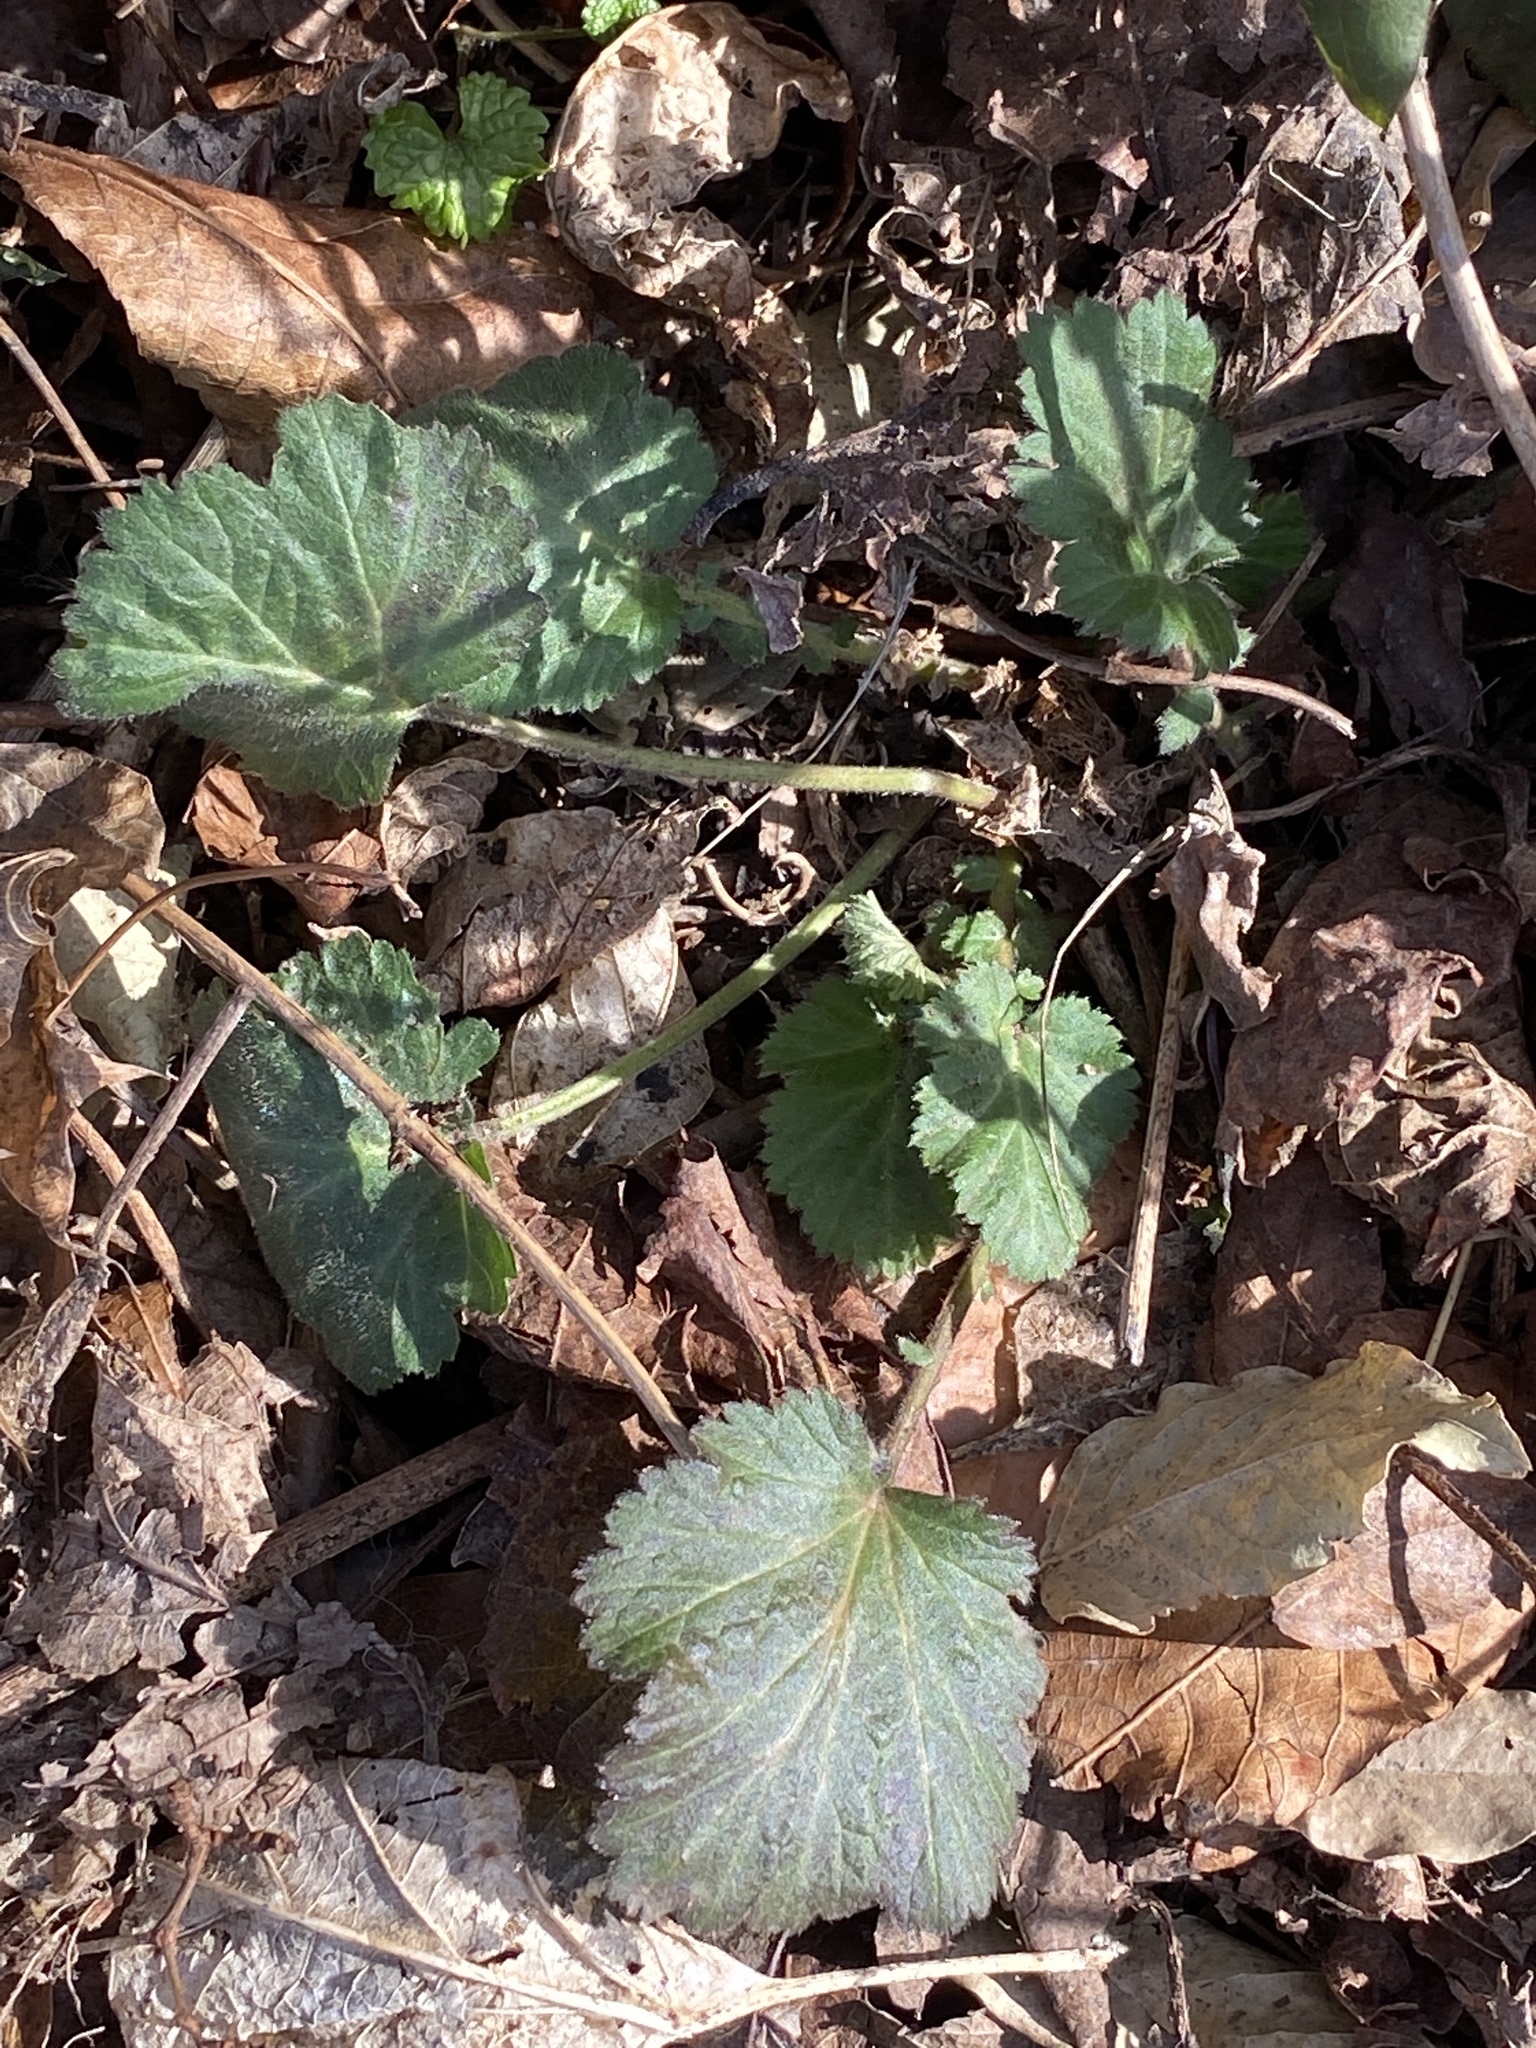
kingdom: Plantae
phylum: Tracheophyta
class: Magnoliopsida
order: Rosales
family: Rosaceae
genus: Geum
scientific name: Geum canadense
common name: White avens
